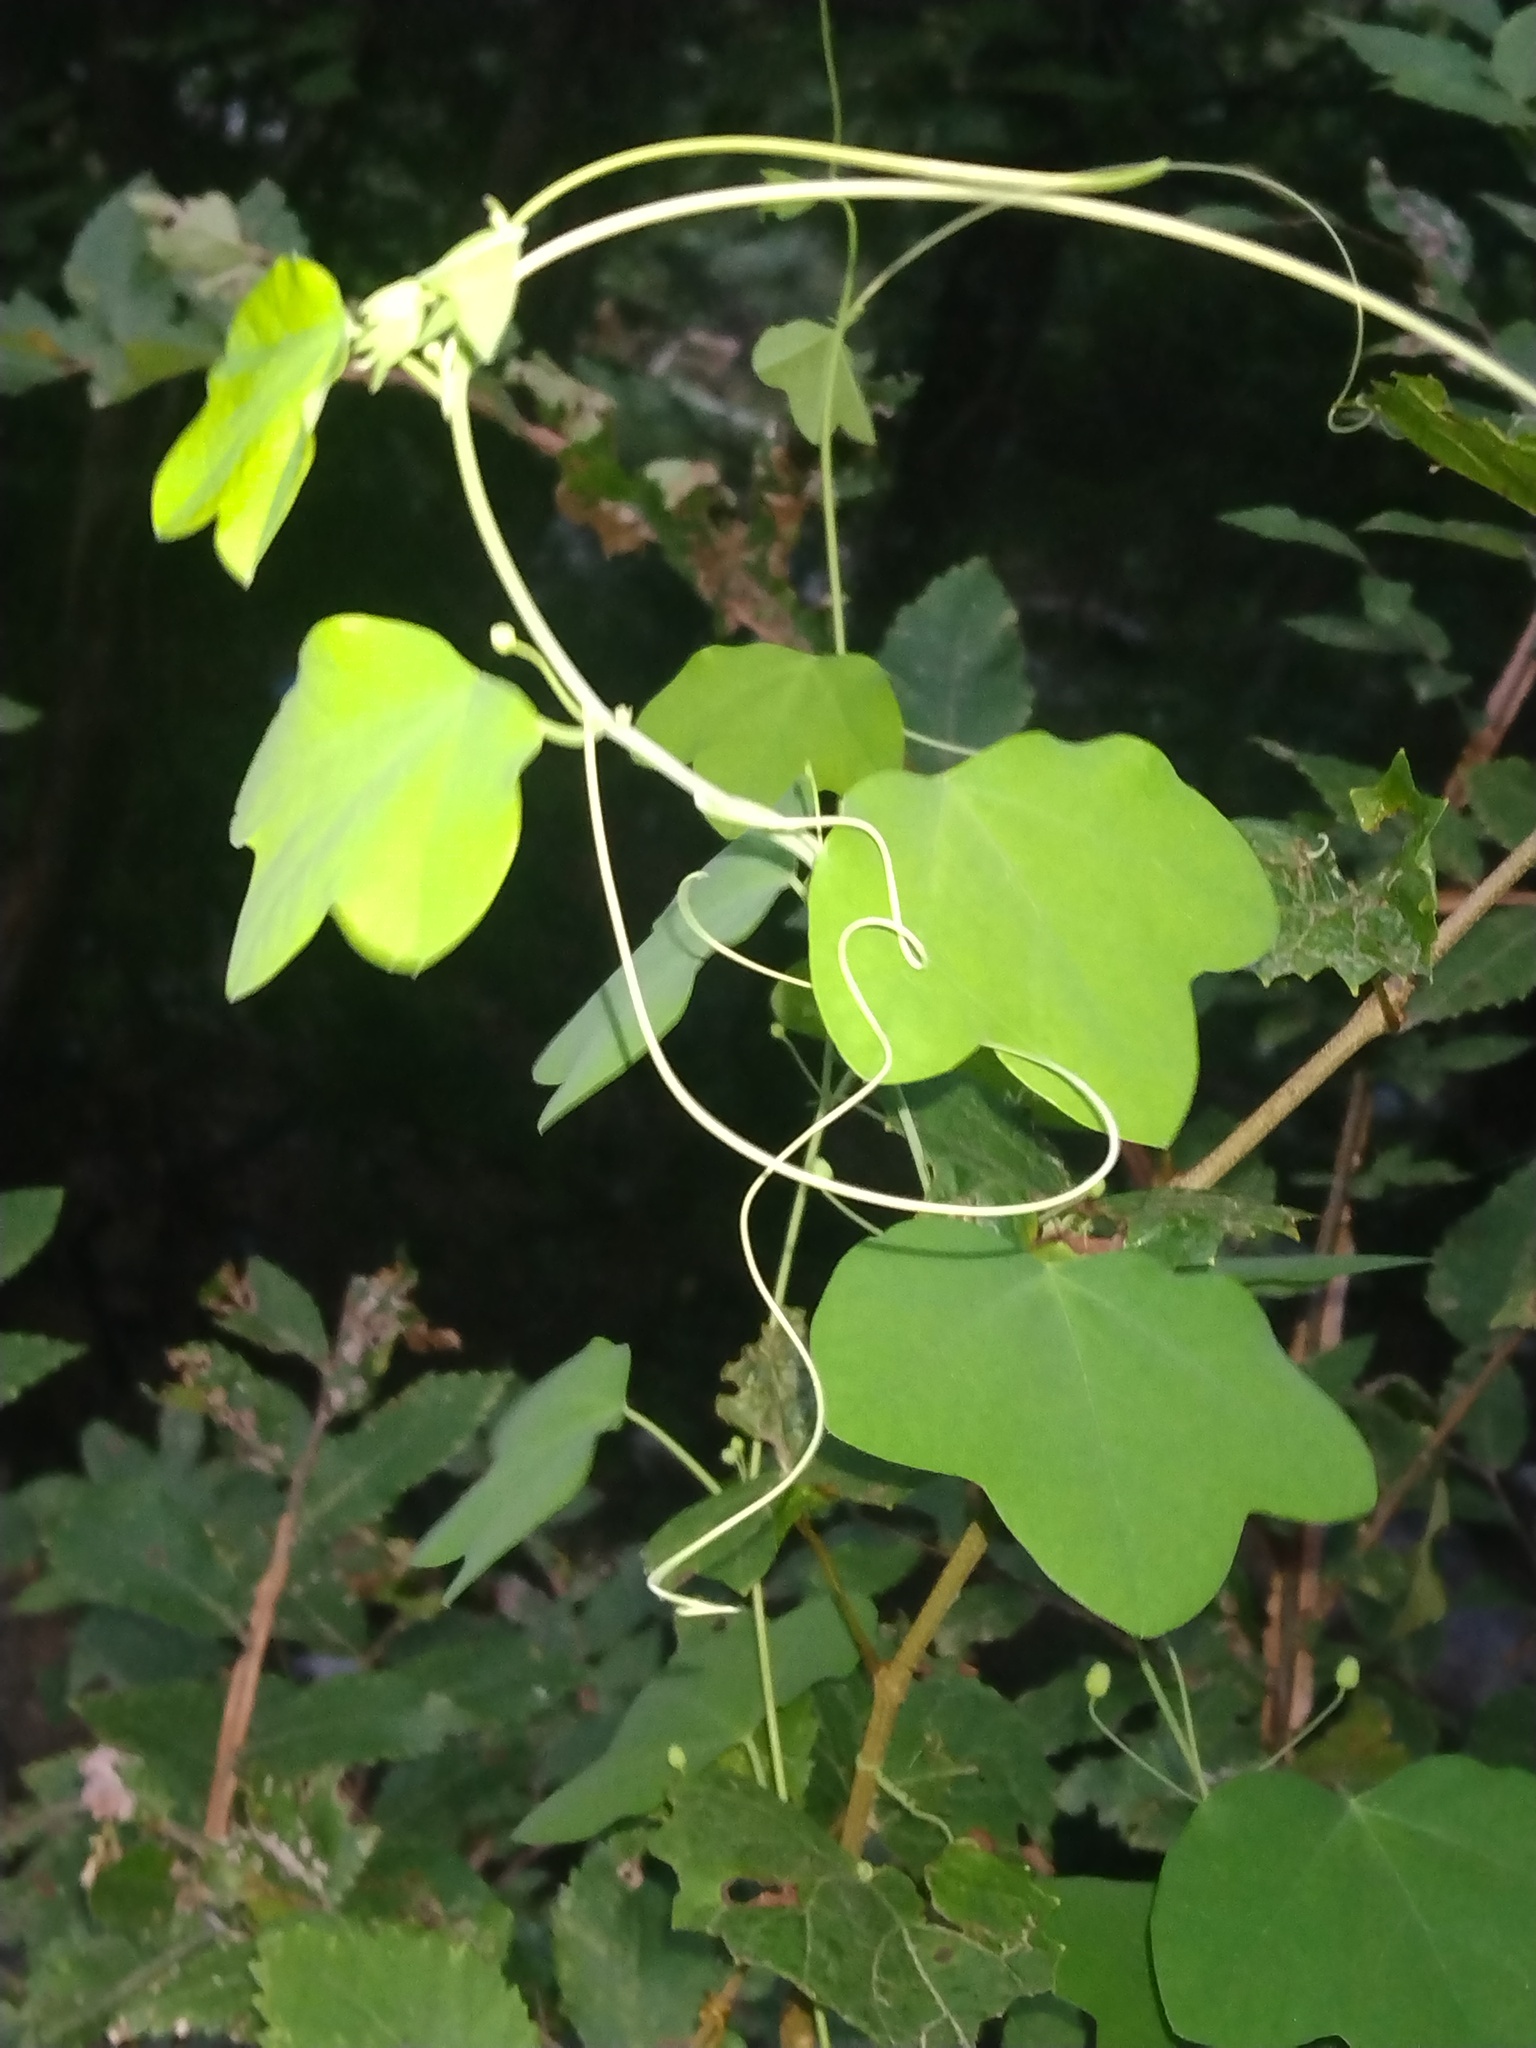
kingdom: Plantae
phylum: Tracheophyta
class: Magnoliopsida
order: Malpighiales
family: Passifloraceae
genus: Passiflora
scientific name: Passiflora lutea
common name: Yellow passionflower
